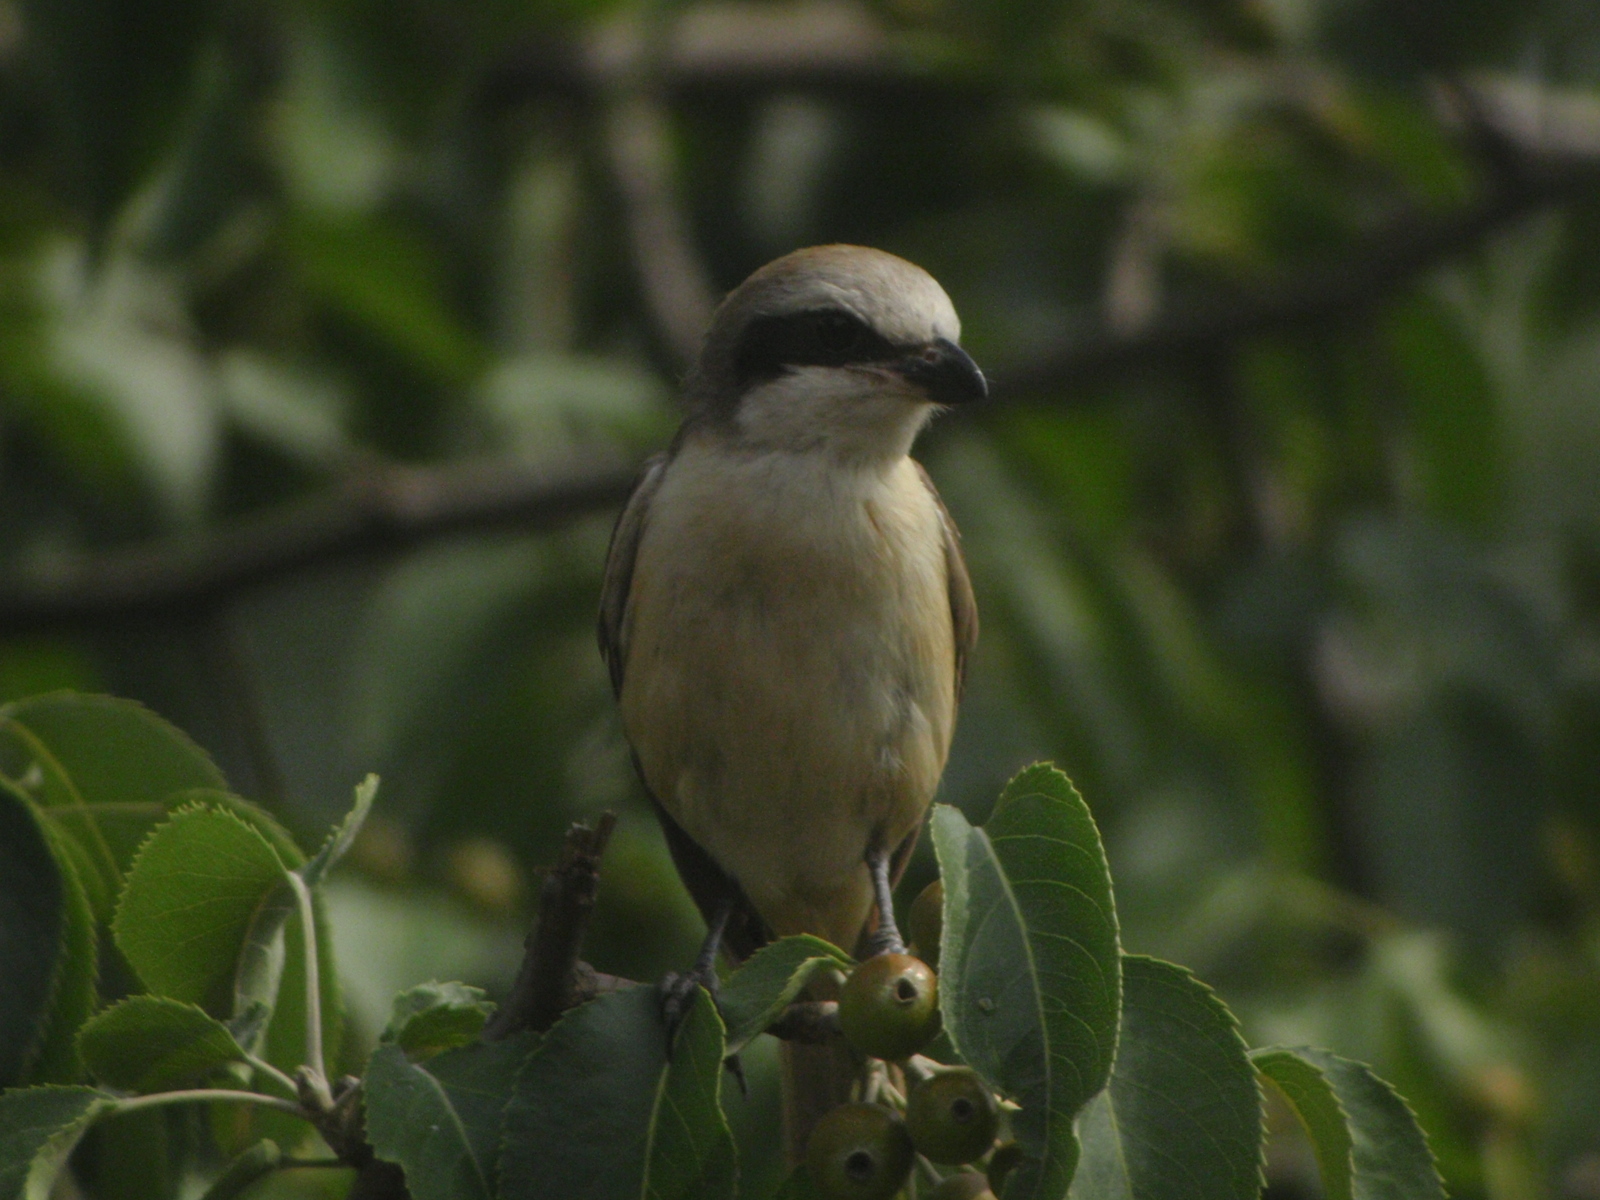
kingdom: Animalia
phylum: Chordata
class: Aves
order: Passeriformes
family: Laniidae
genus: Lanius
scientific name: Lanius cristatus
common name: Brown shrike
